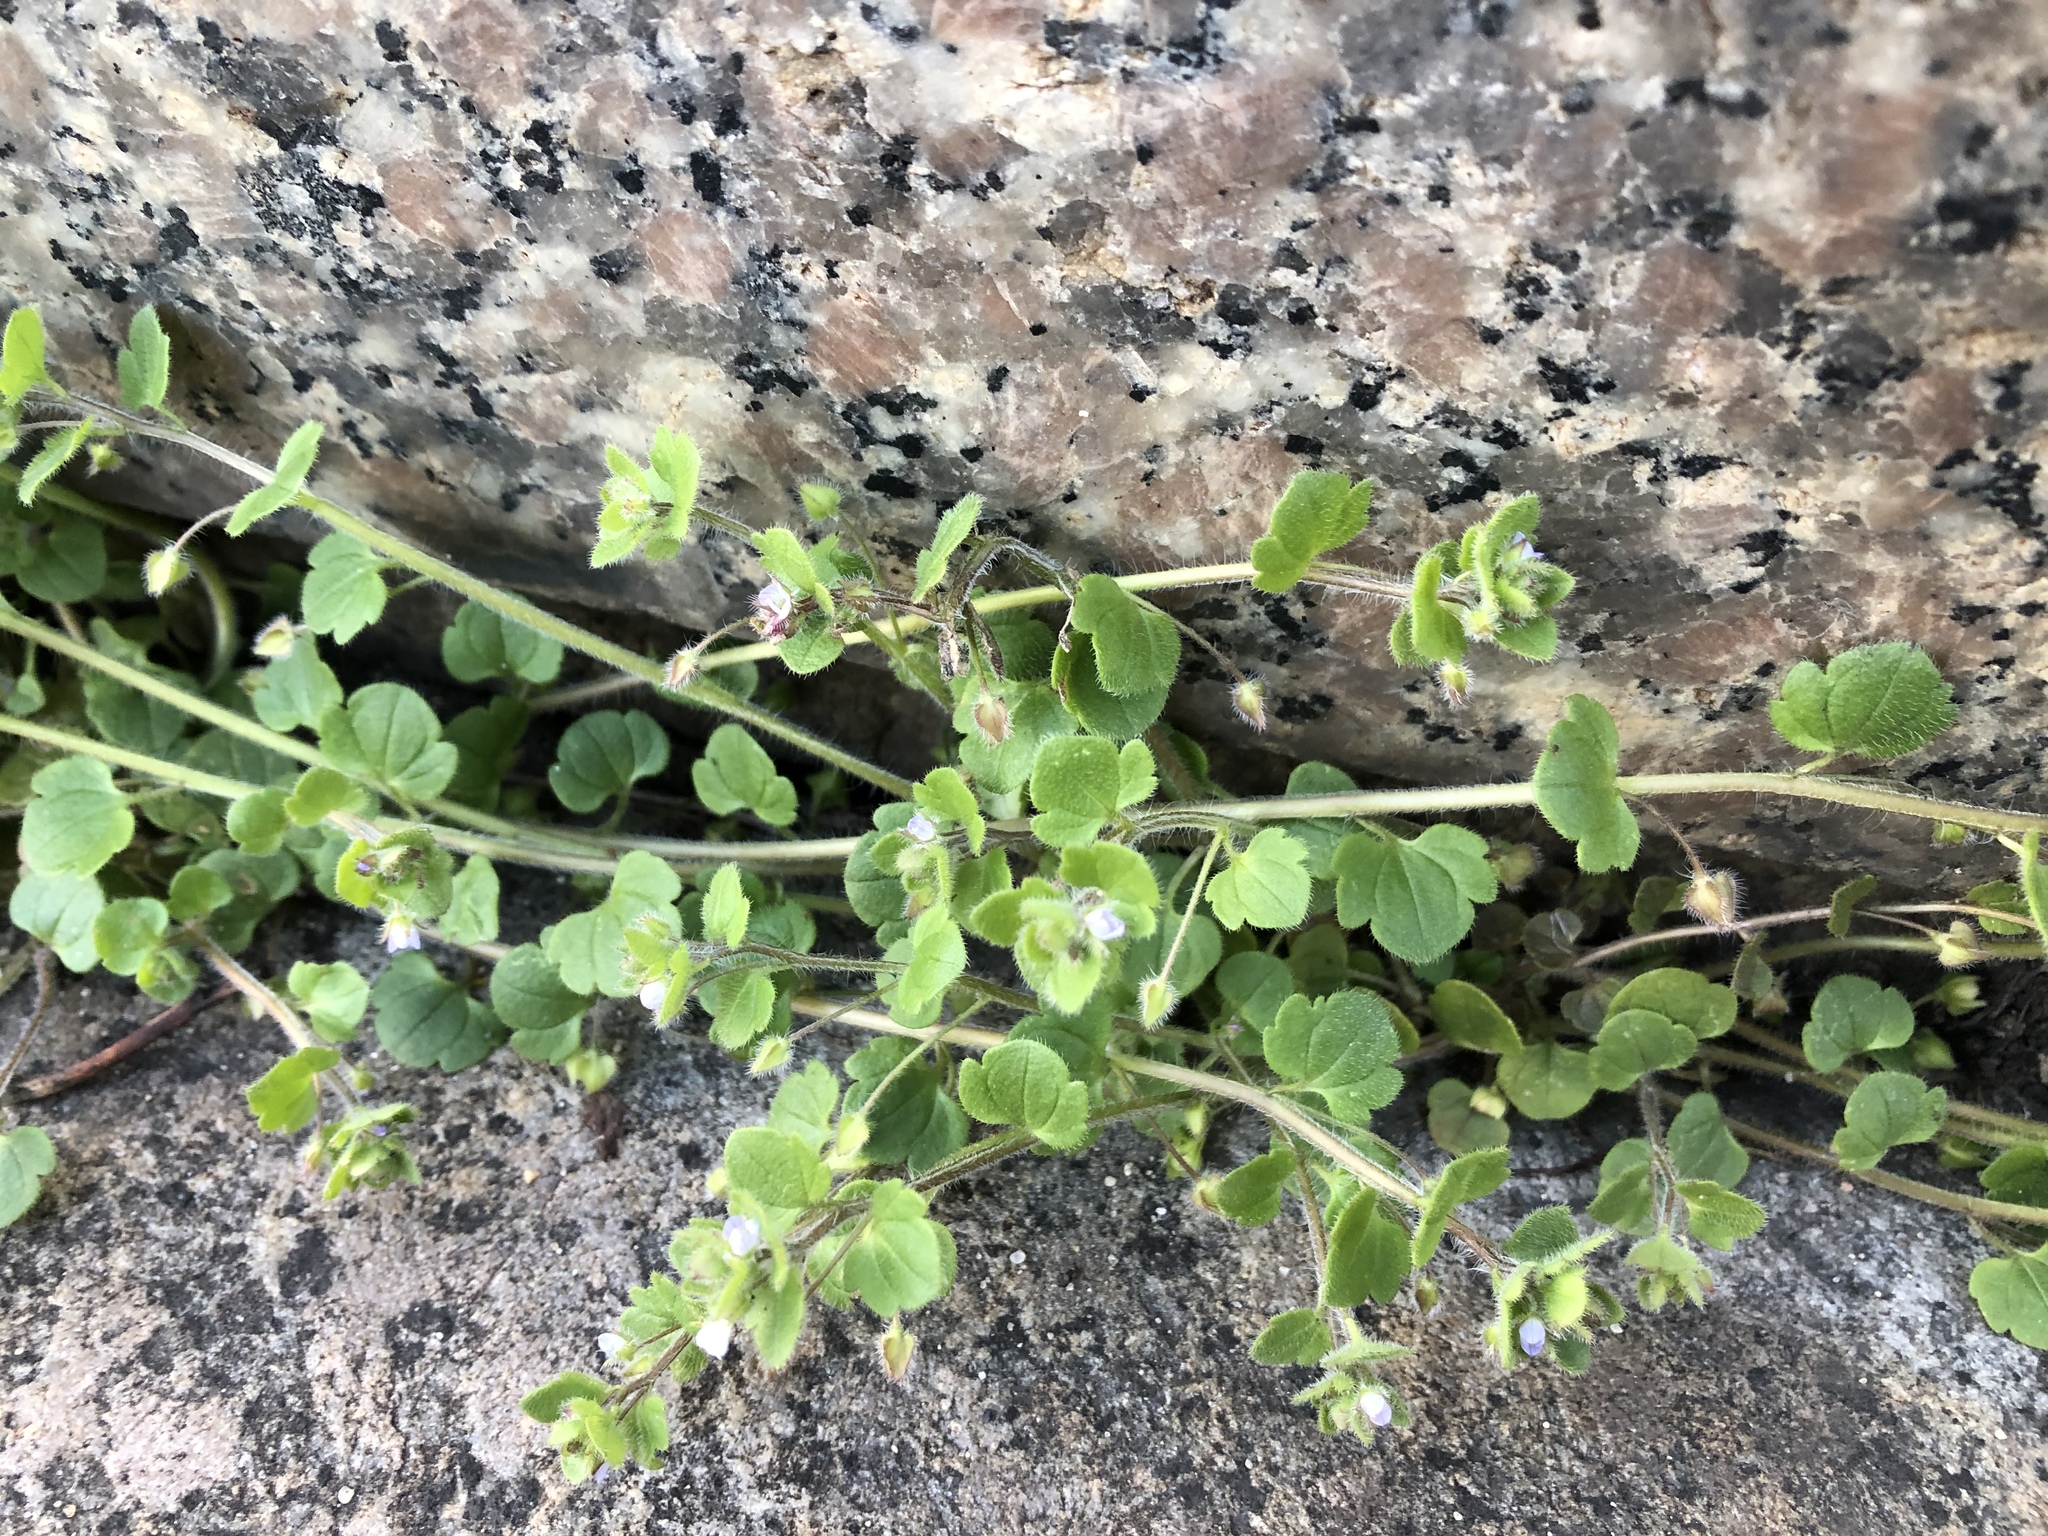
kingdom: Plantae
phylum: Tracheophyta
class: Magnoliopsida
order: Lamiales
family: Plantaginaceae
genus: Veronica
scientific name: Veronica sublobata
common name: False ivy-leaved speedwell
